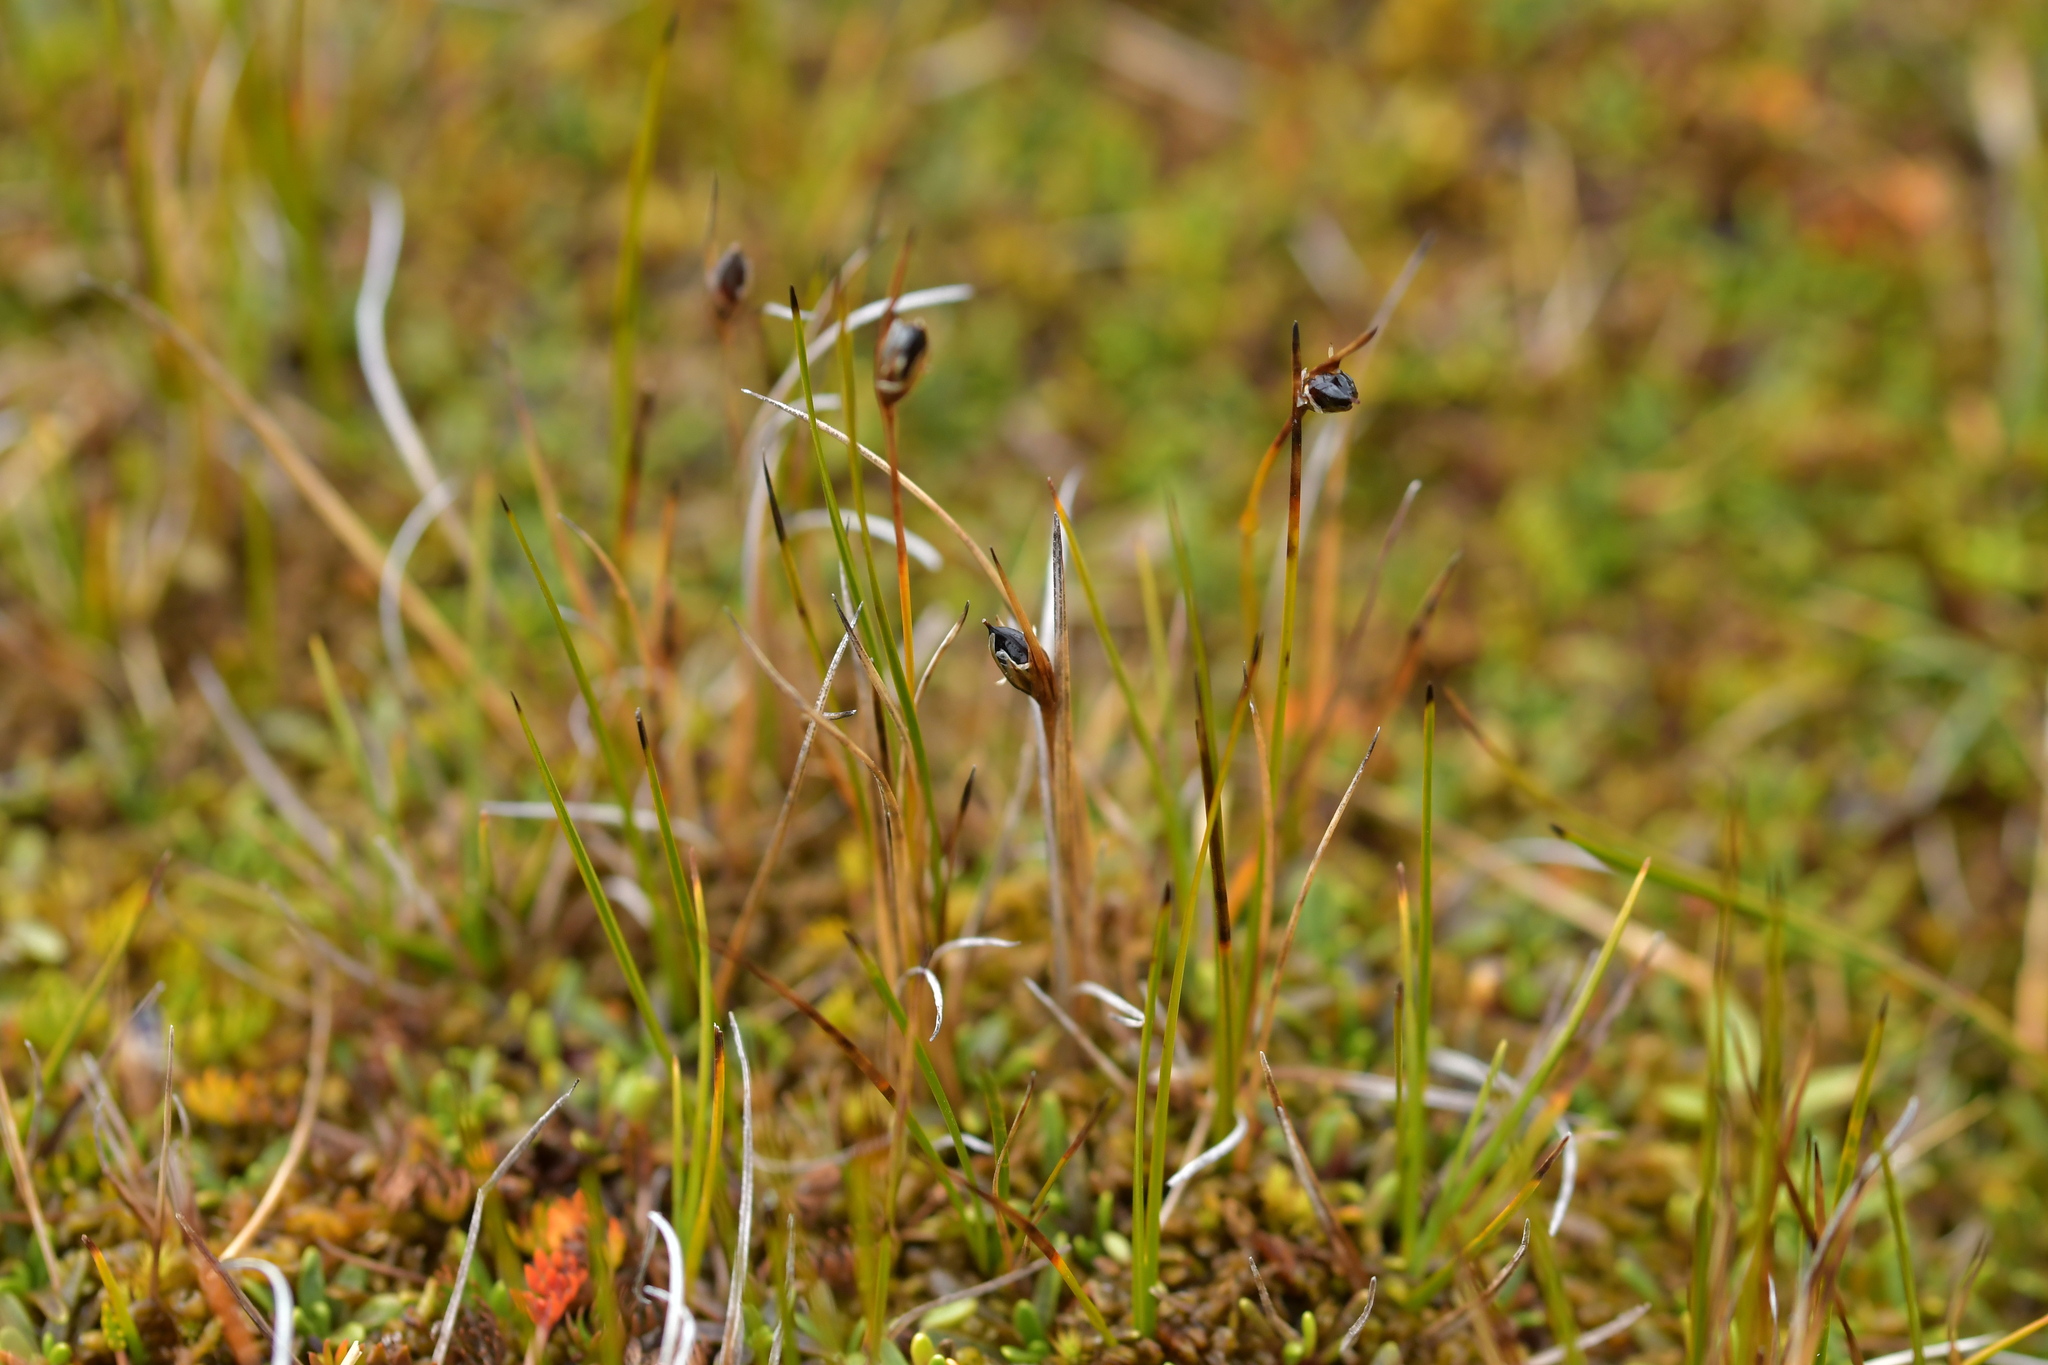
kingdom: Plantae
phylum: Tracheophyta
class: Liliopsida
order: Poales
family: Juncaceae
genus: Juncus
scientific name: Juncus novae-zelandiae
